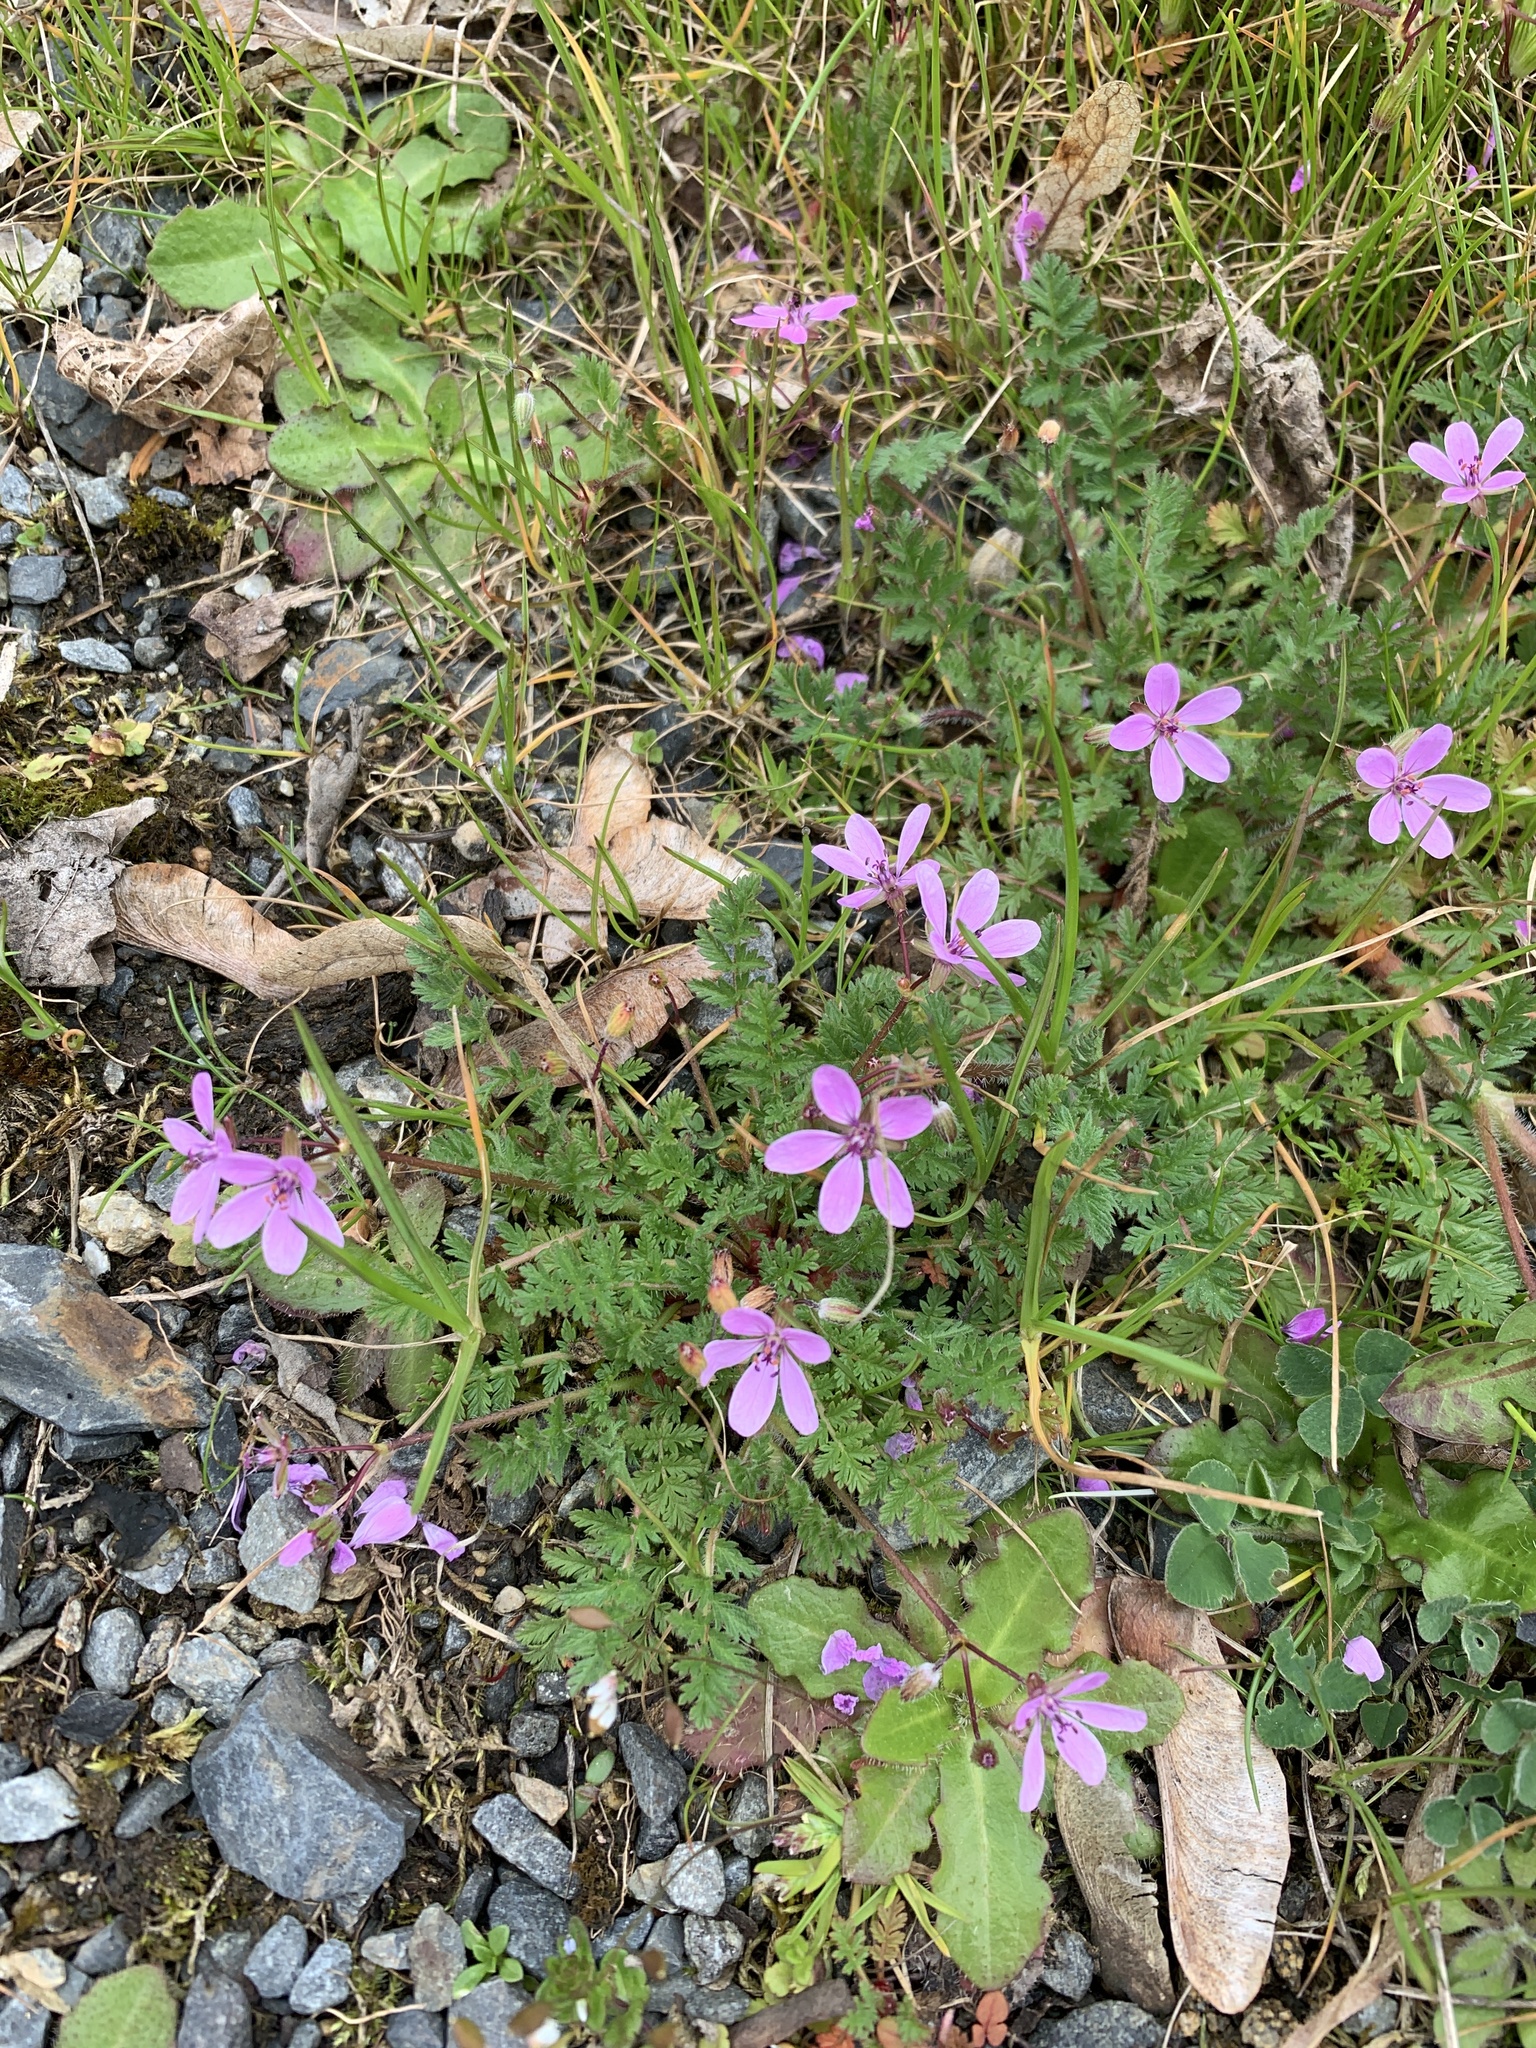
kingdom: Plantae
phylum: Tracheophyta
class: Magnoliopsida
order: Geraniales
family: Geraniaceae
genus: Erodium
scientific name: Erodium cicutarium
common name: Common stork's-bill
